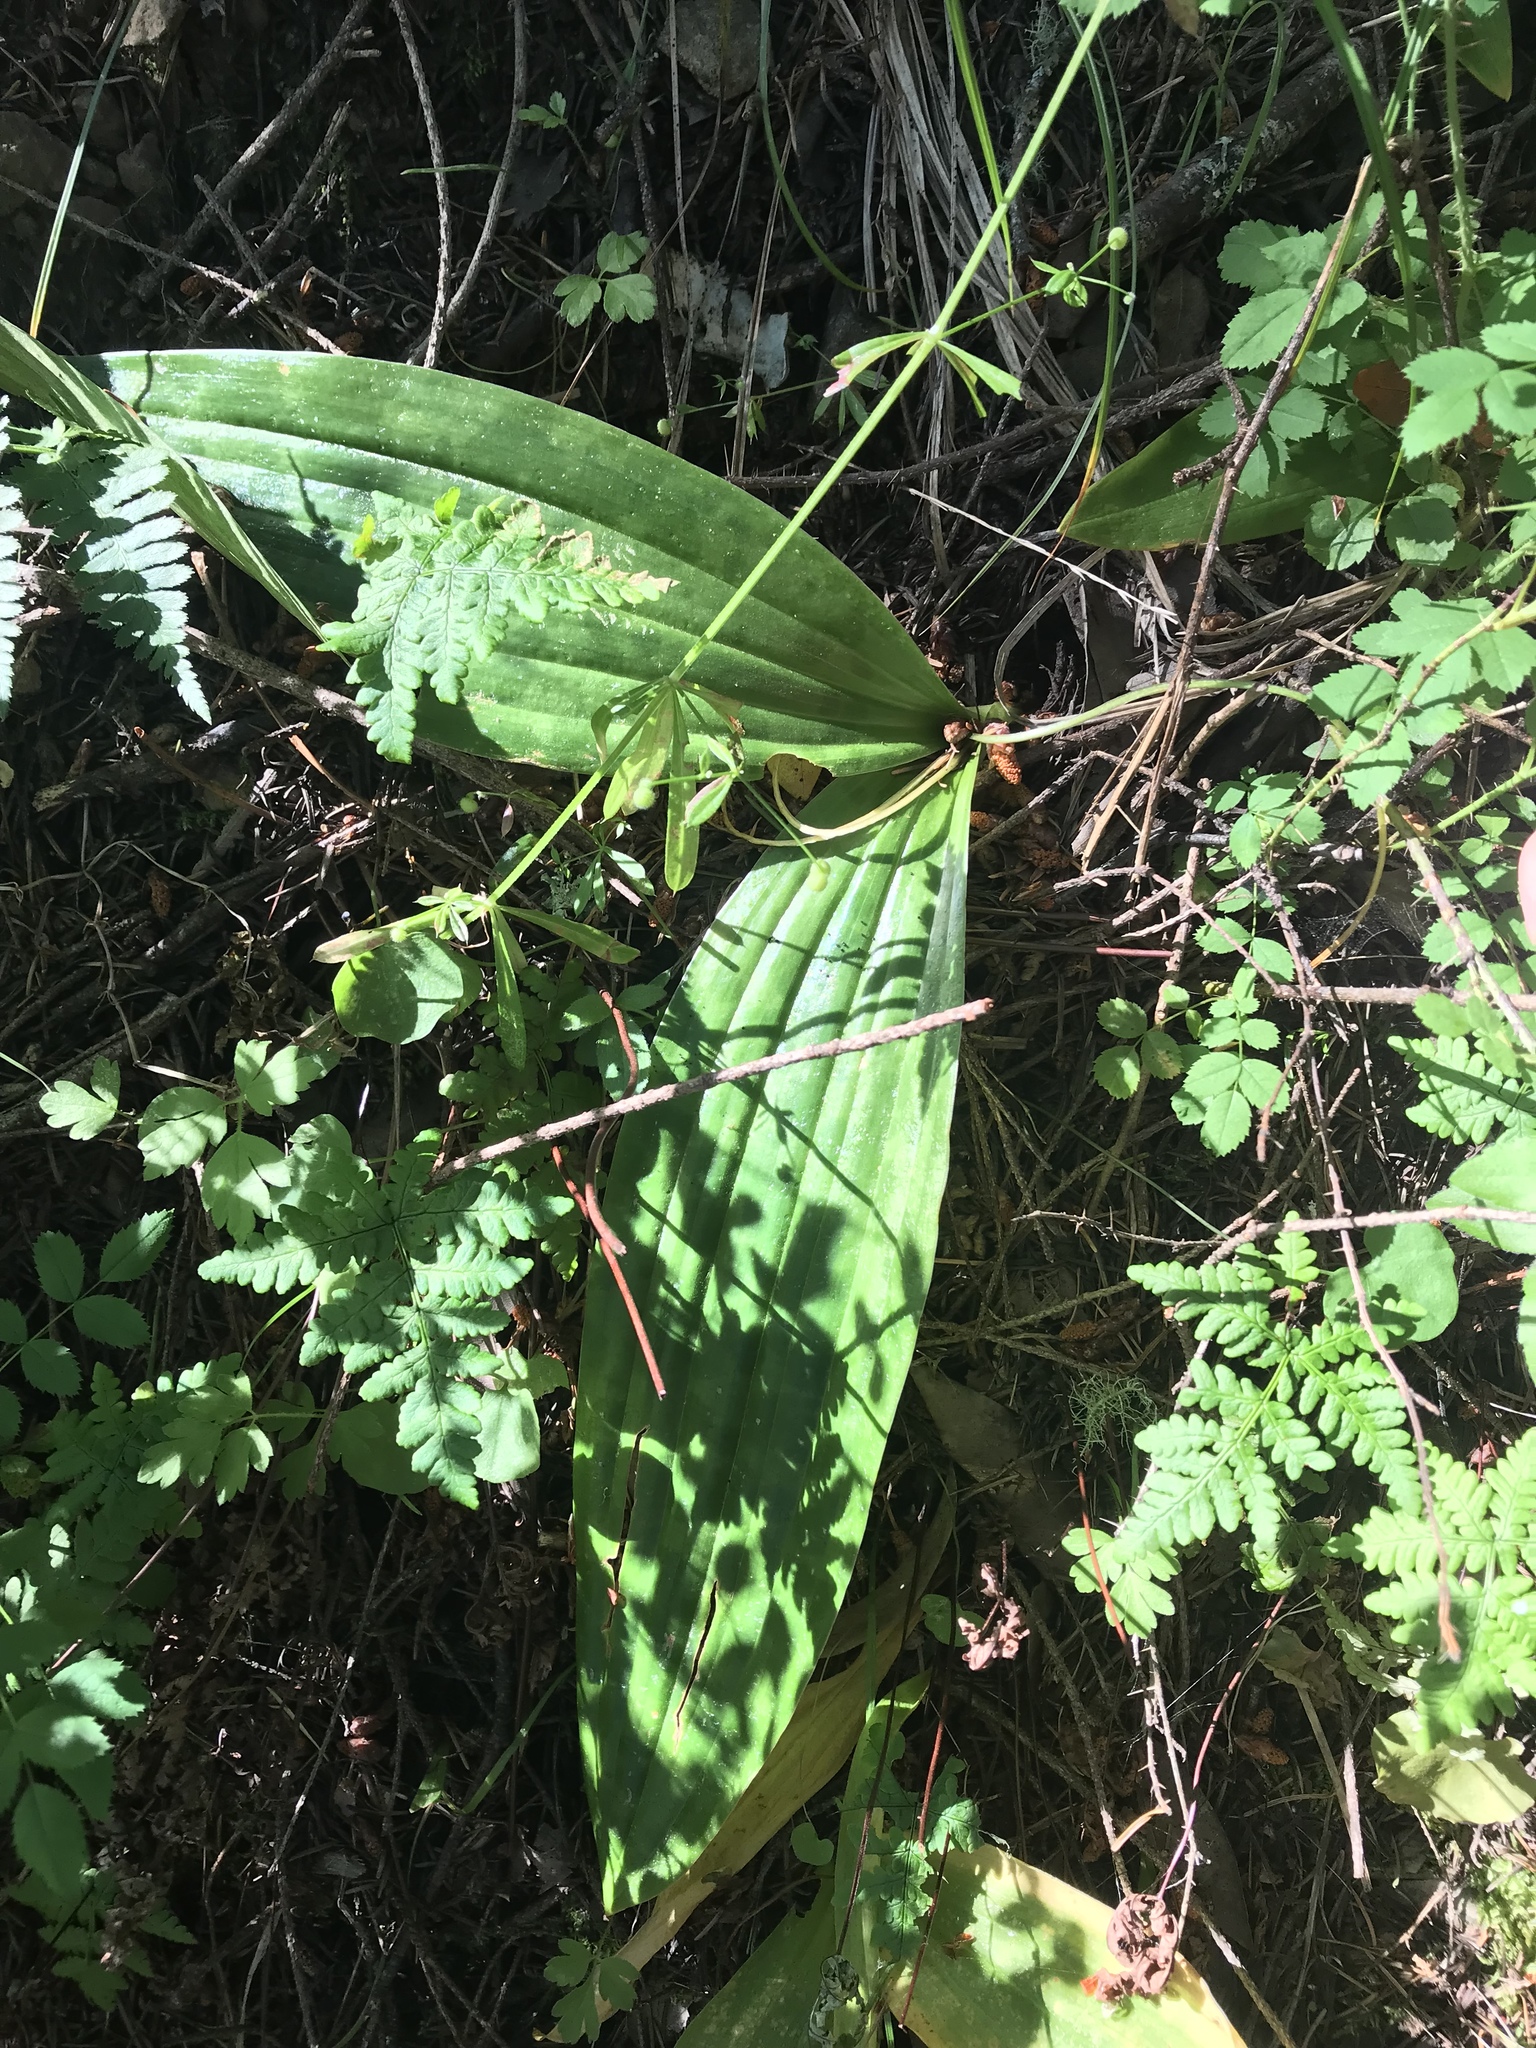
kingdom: Plantae
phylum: Tracheophyta
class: Liliopsida
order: Liliales
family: Liliaceae
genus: Scoliopus
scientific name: Scoliopus bigelovii
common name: Foetid adder's-tongue
